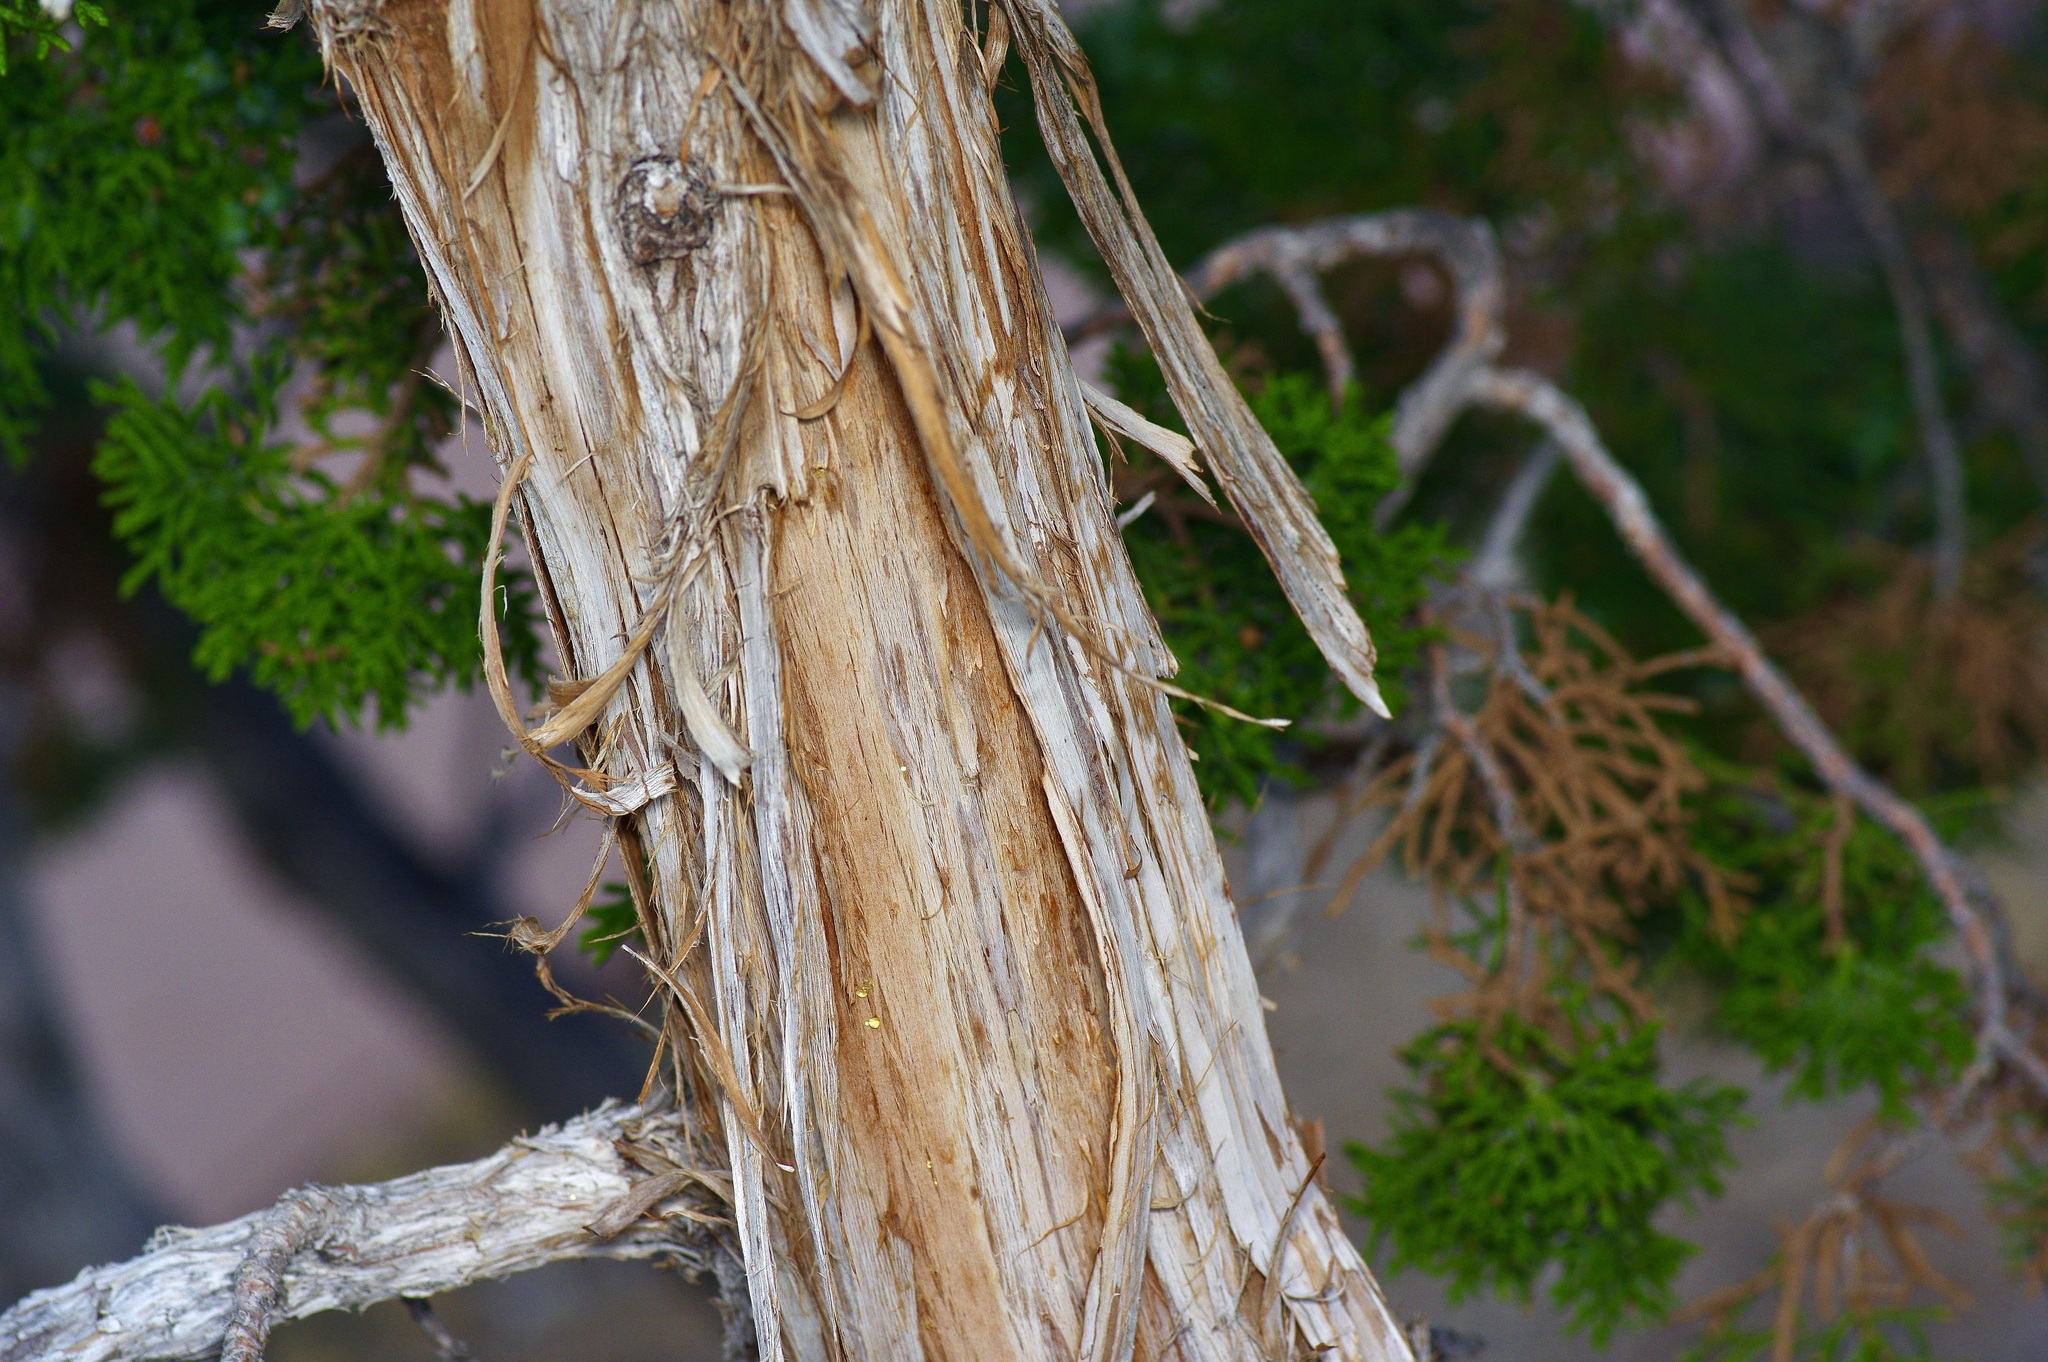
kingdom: Plantae
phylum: Tracheophyta
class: Pinopsida
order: Pinales
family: Cupressaceae
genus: Juniperus
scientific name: Juniperus monosperma
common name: One-seed juniper
